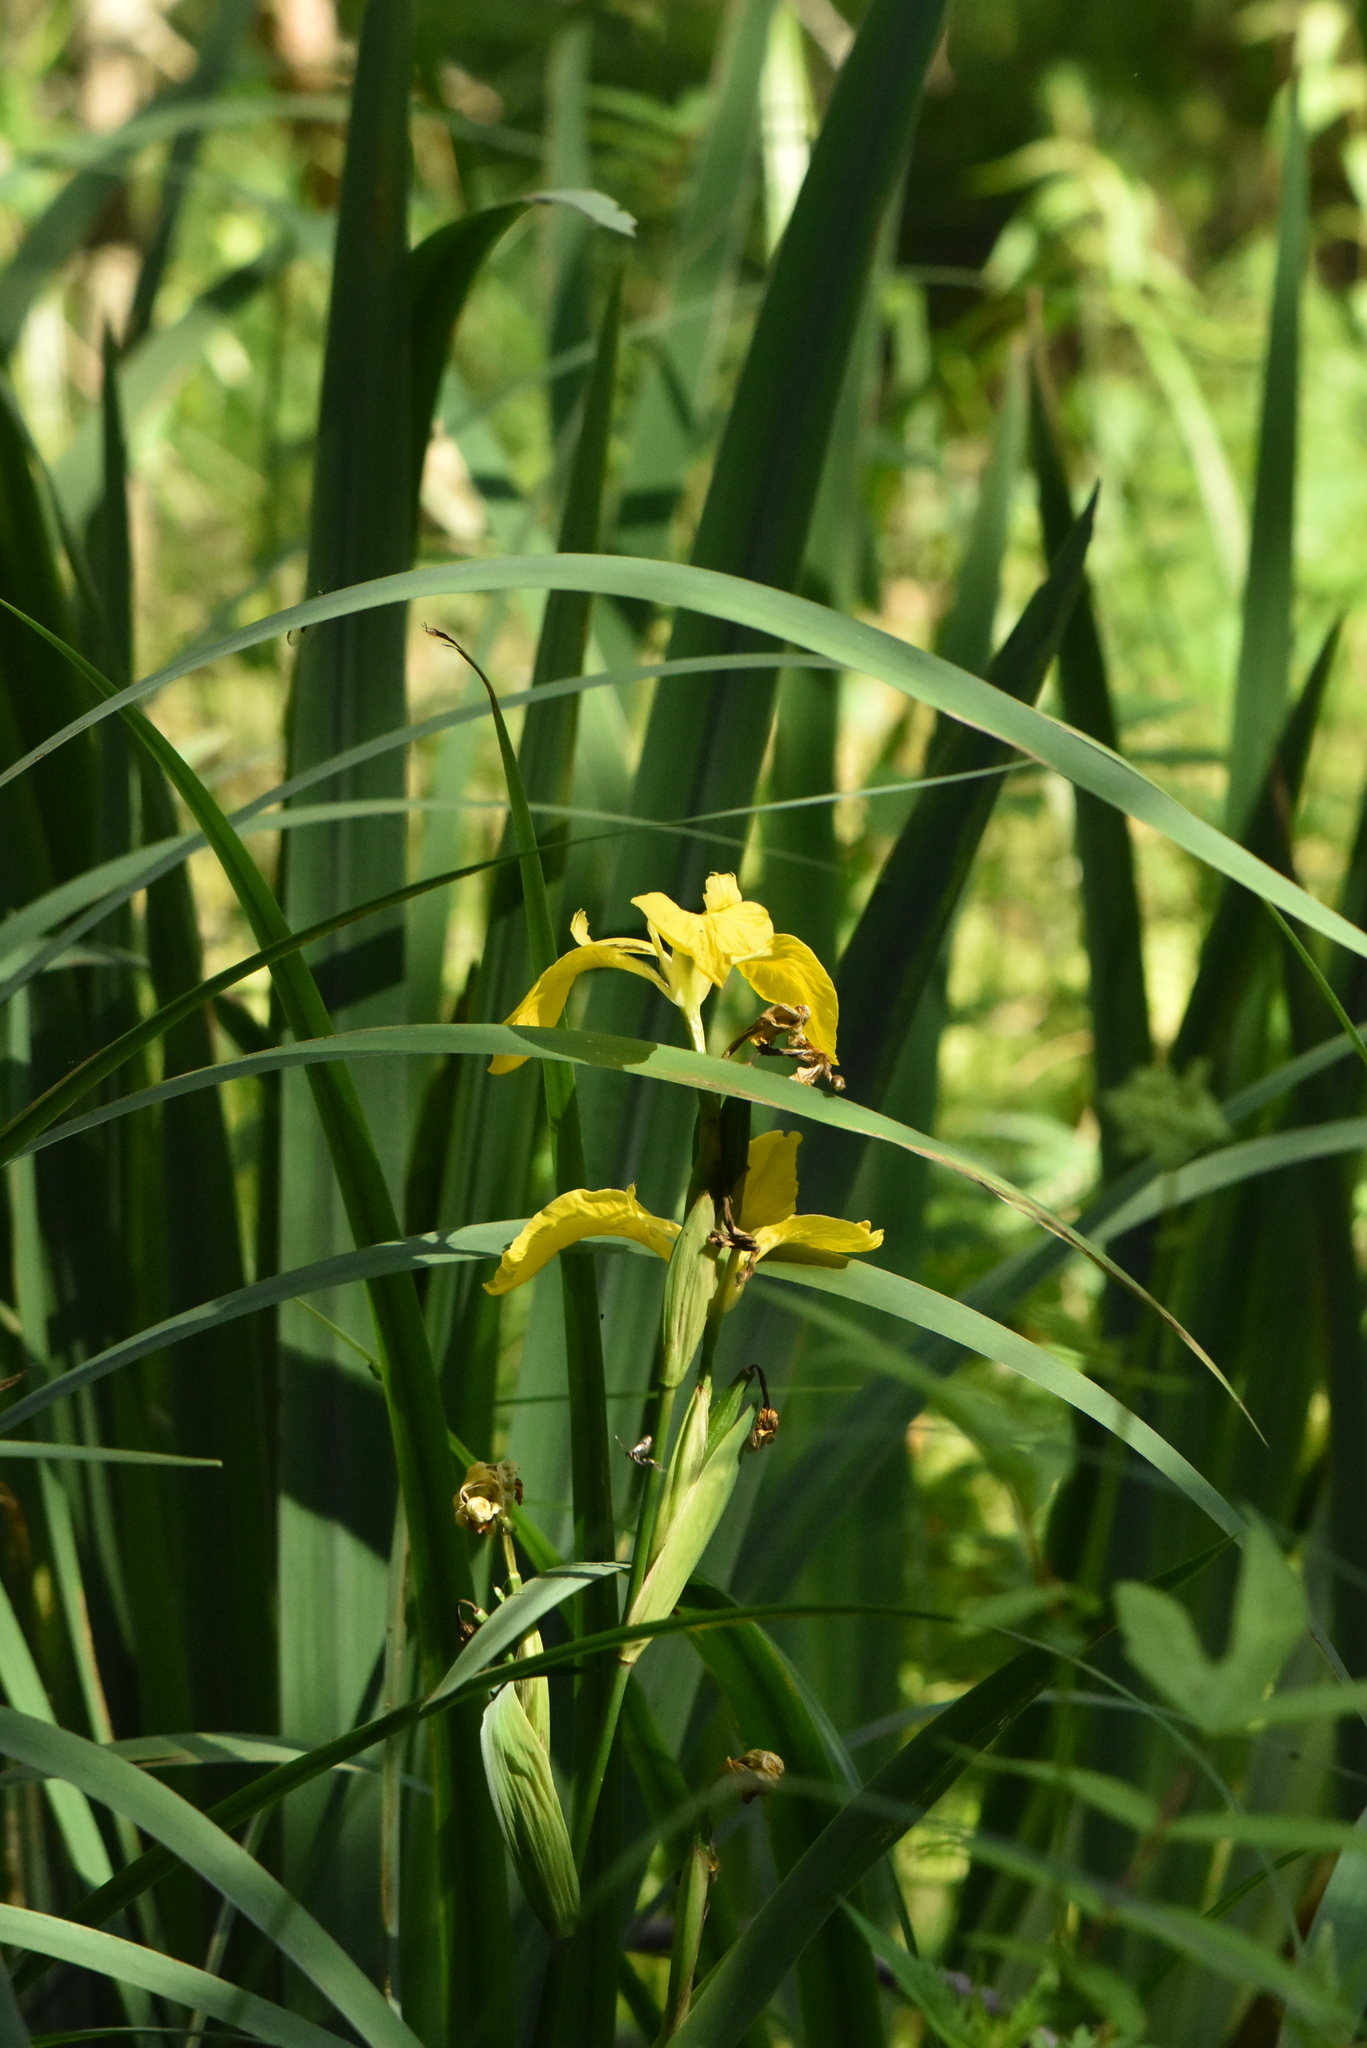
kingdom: Plantae
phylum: Tracheophyta
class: Liliopsida
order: Asparagales
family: Iridaceae
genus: Iris
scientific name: Iris pseudacorus
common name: Yellow flag
